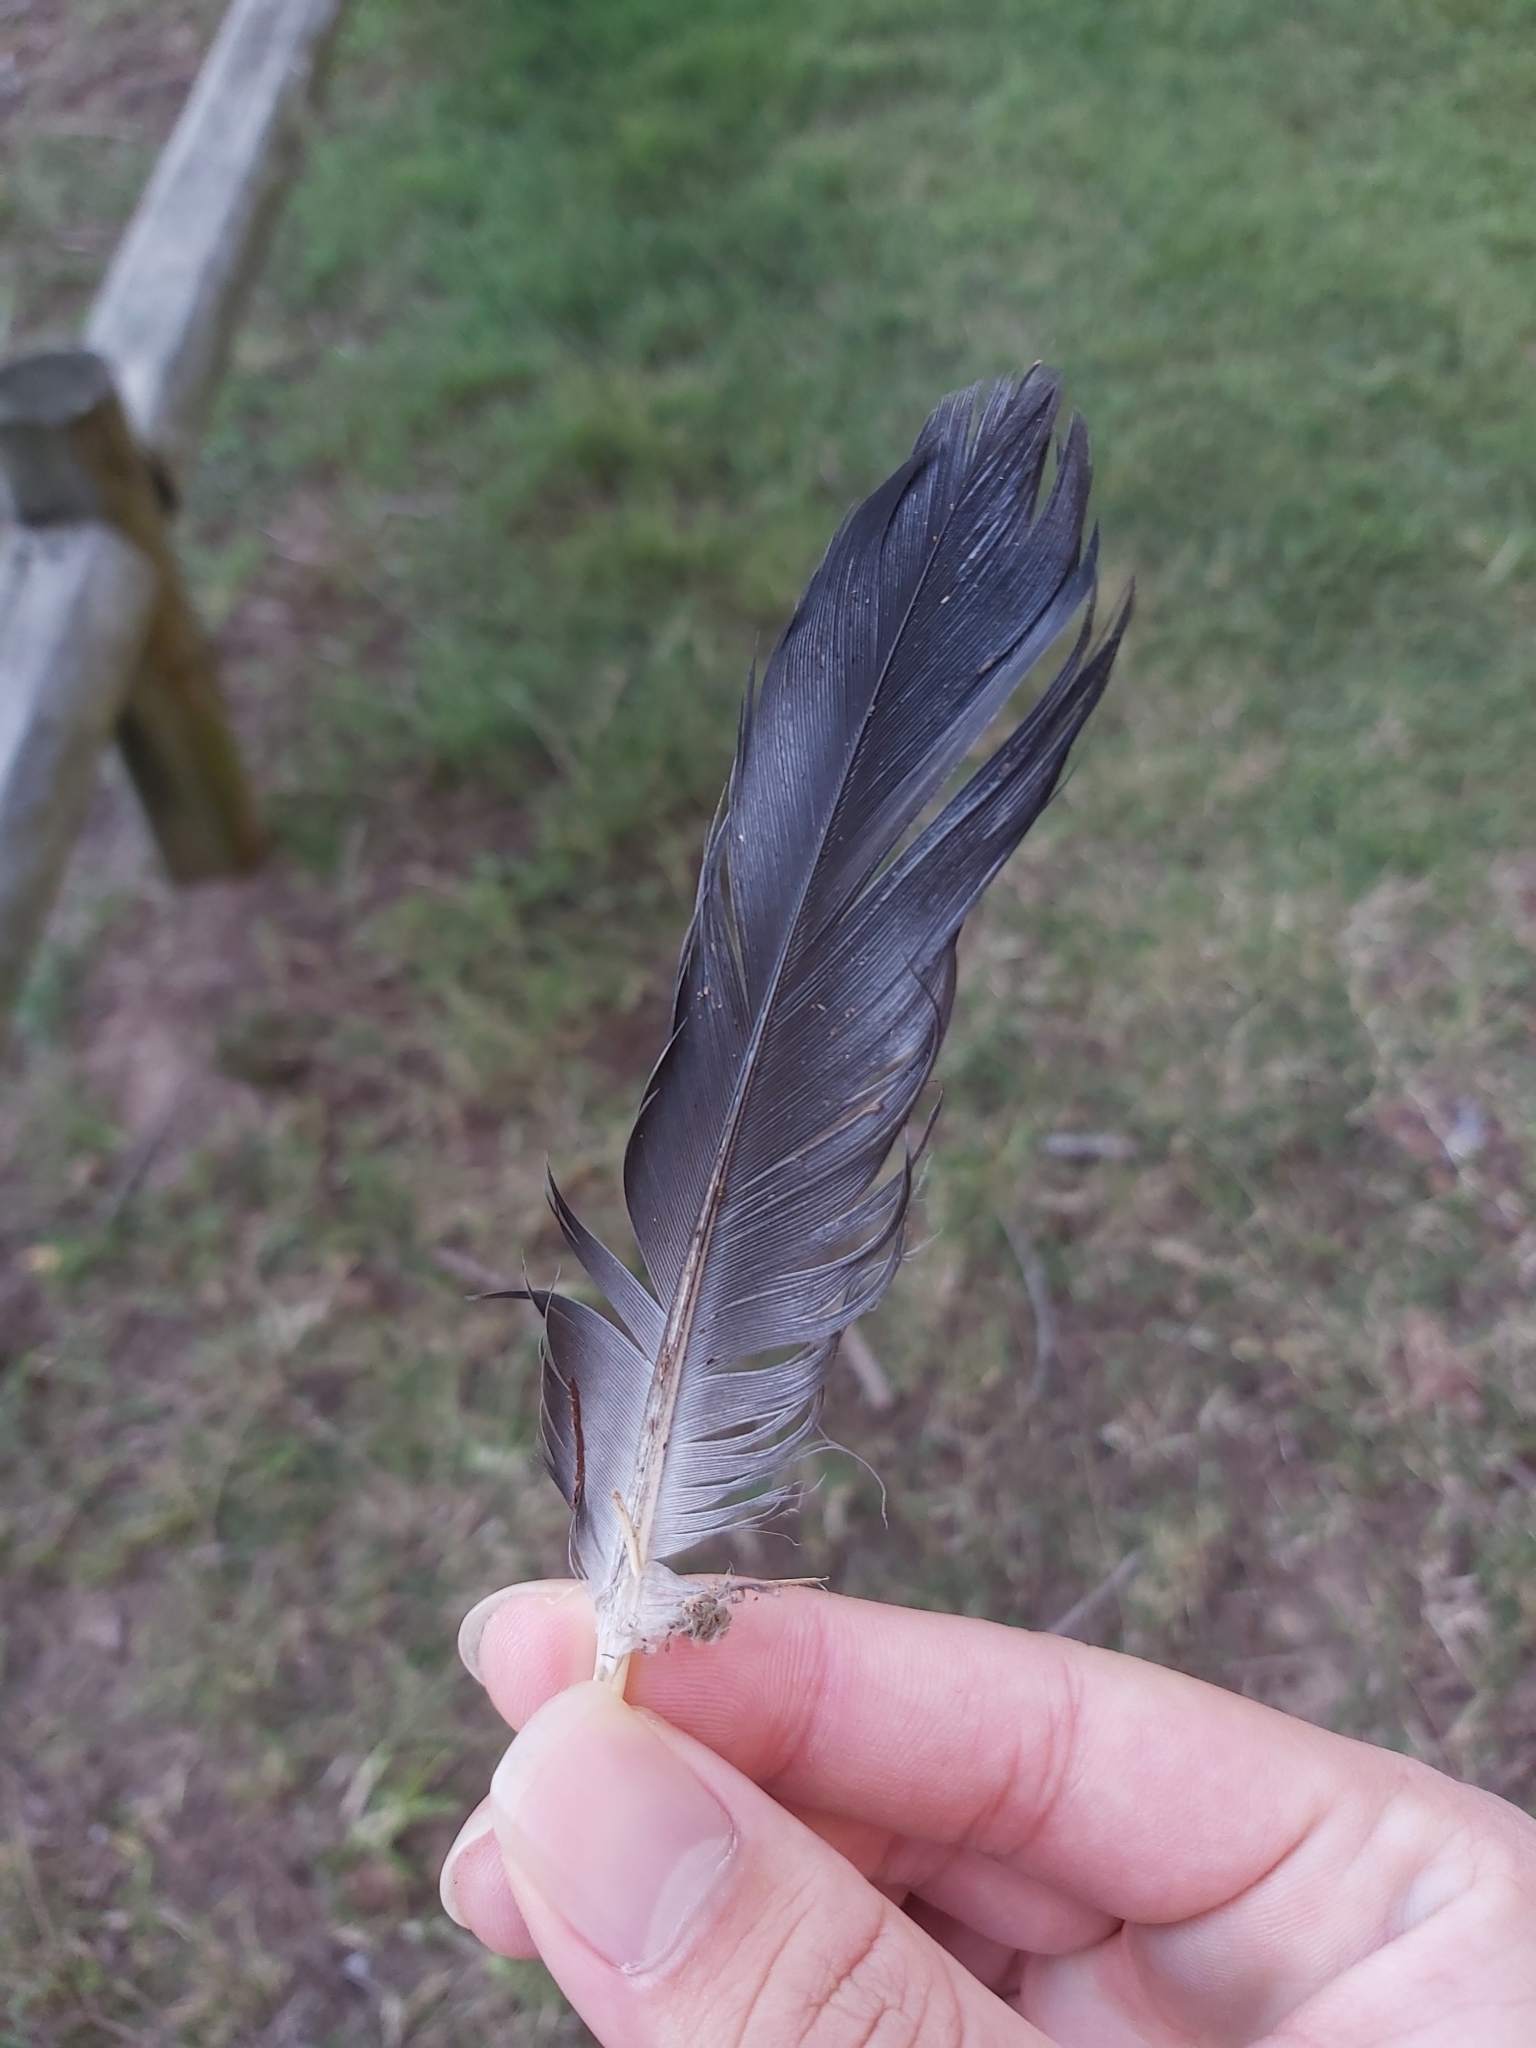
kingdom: Animalia
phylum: Chordata
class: Aves
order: Columbiformes
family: Columbidae
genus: Columba
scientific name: Columba livia
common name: Rock pigeon
